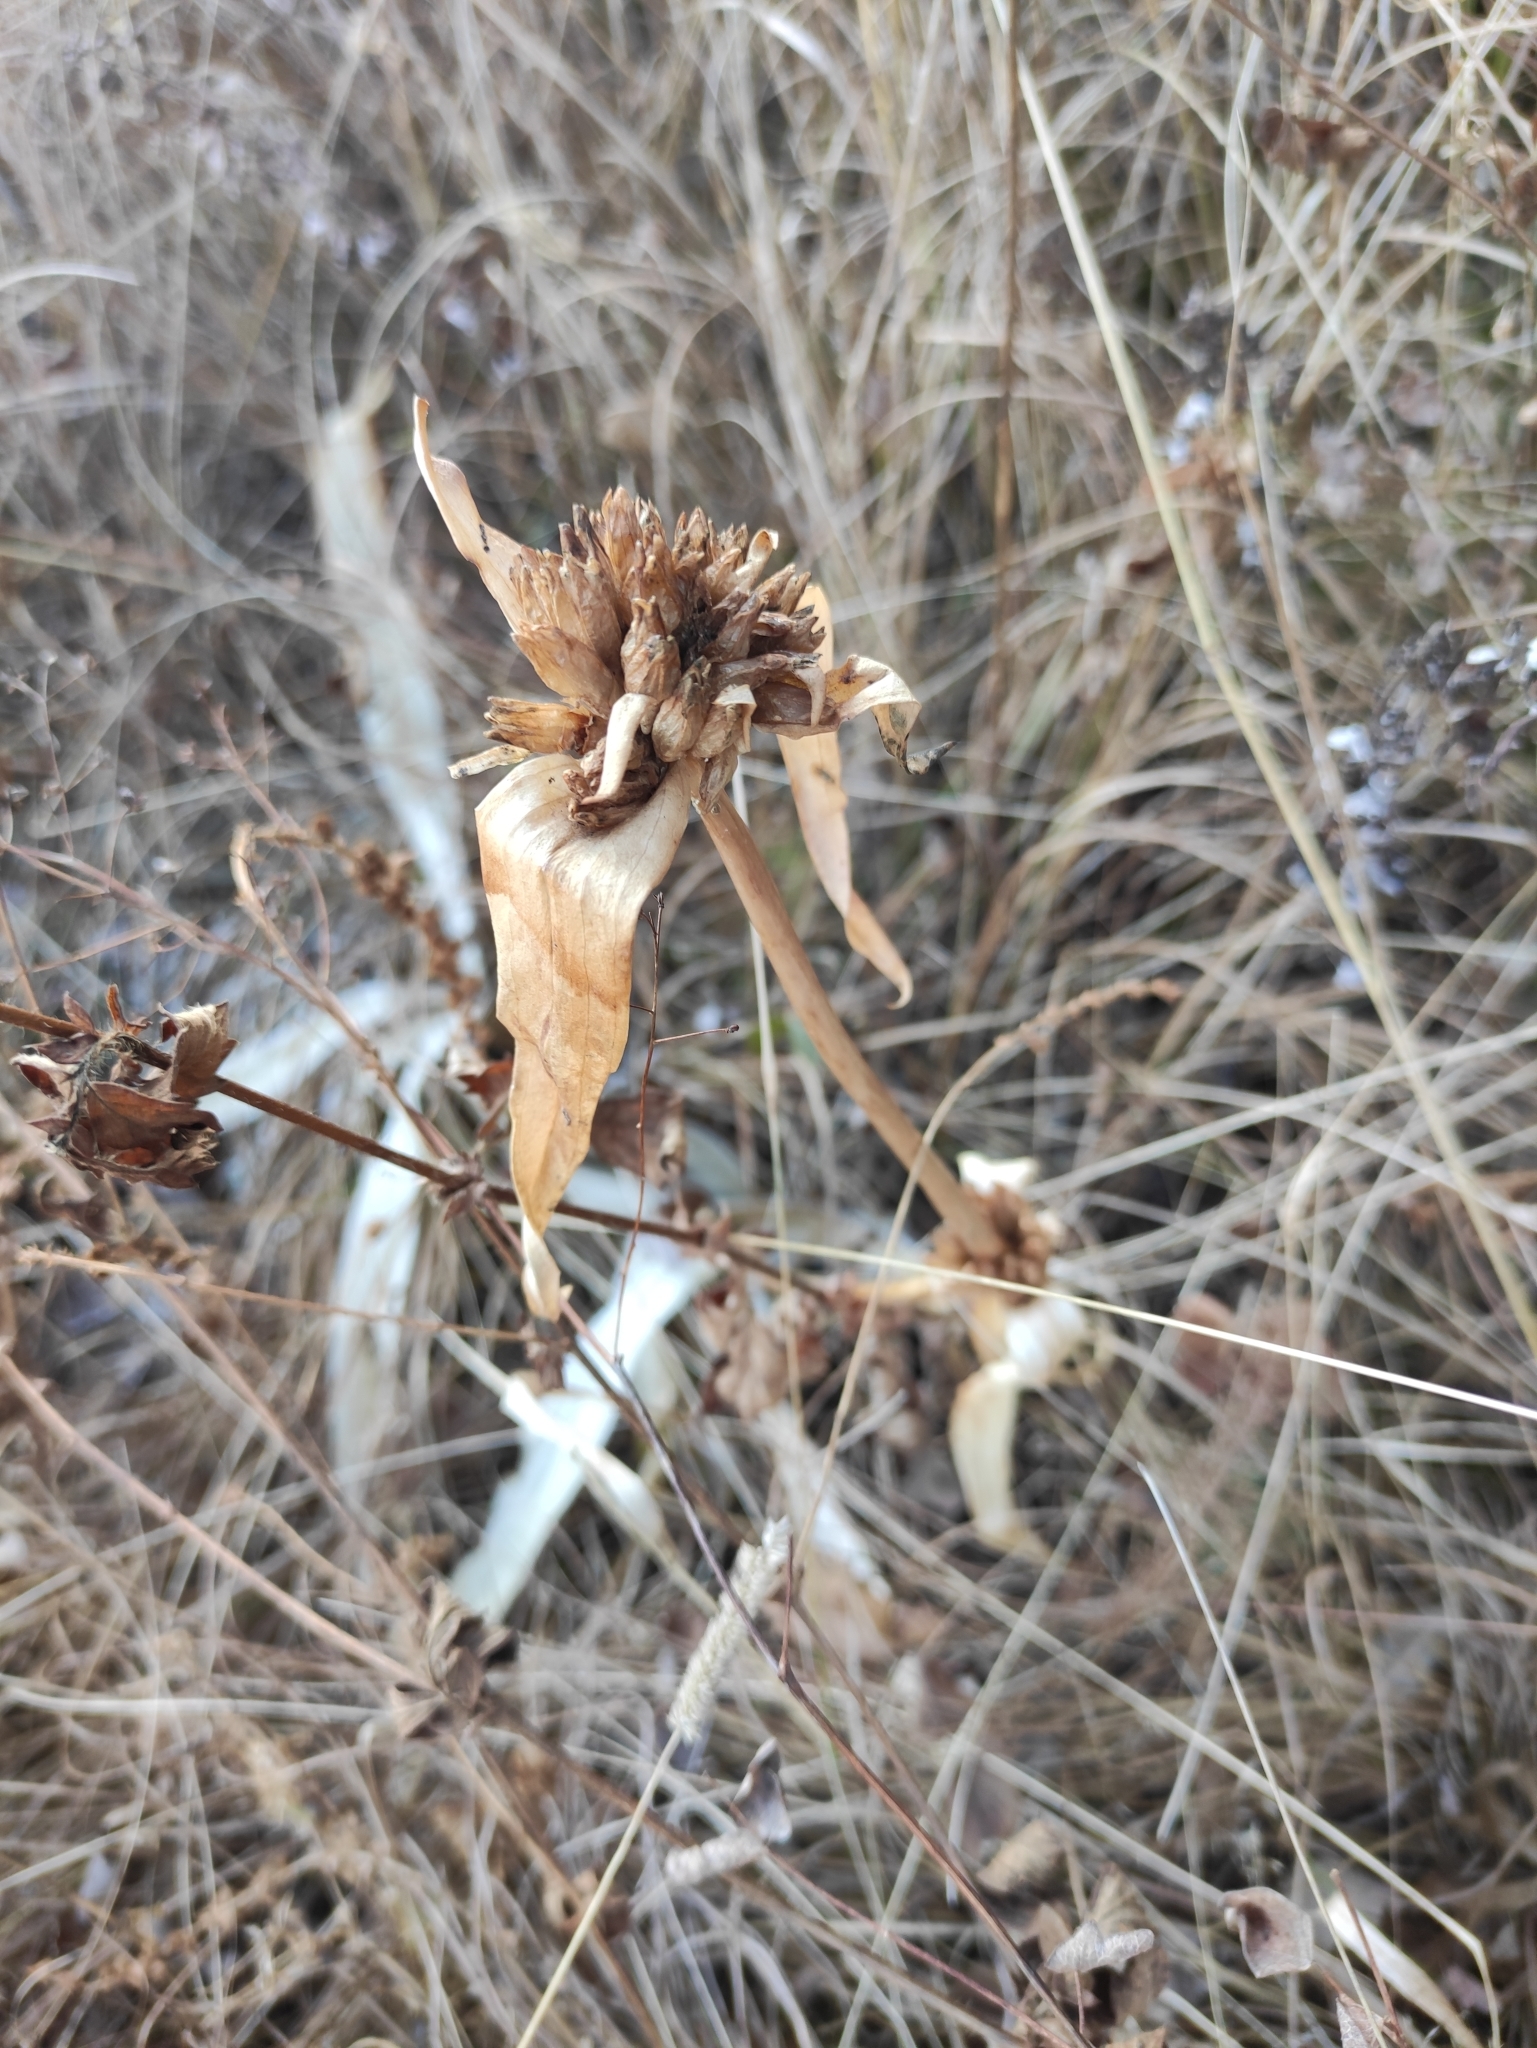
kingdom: Plantae
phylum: Tracheophyta
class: Magnoliopsida
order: Gentianales
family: Gentianaceae
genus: Gentiana
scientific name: Gentiana macrophylla
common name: Large-leaf gentian
